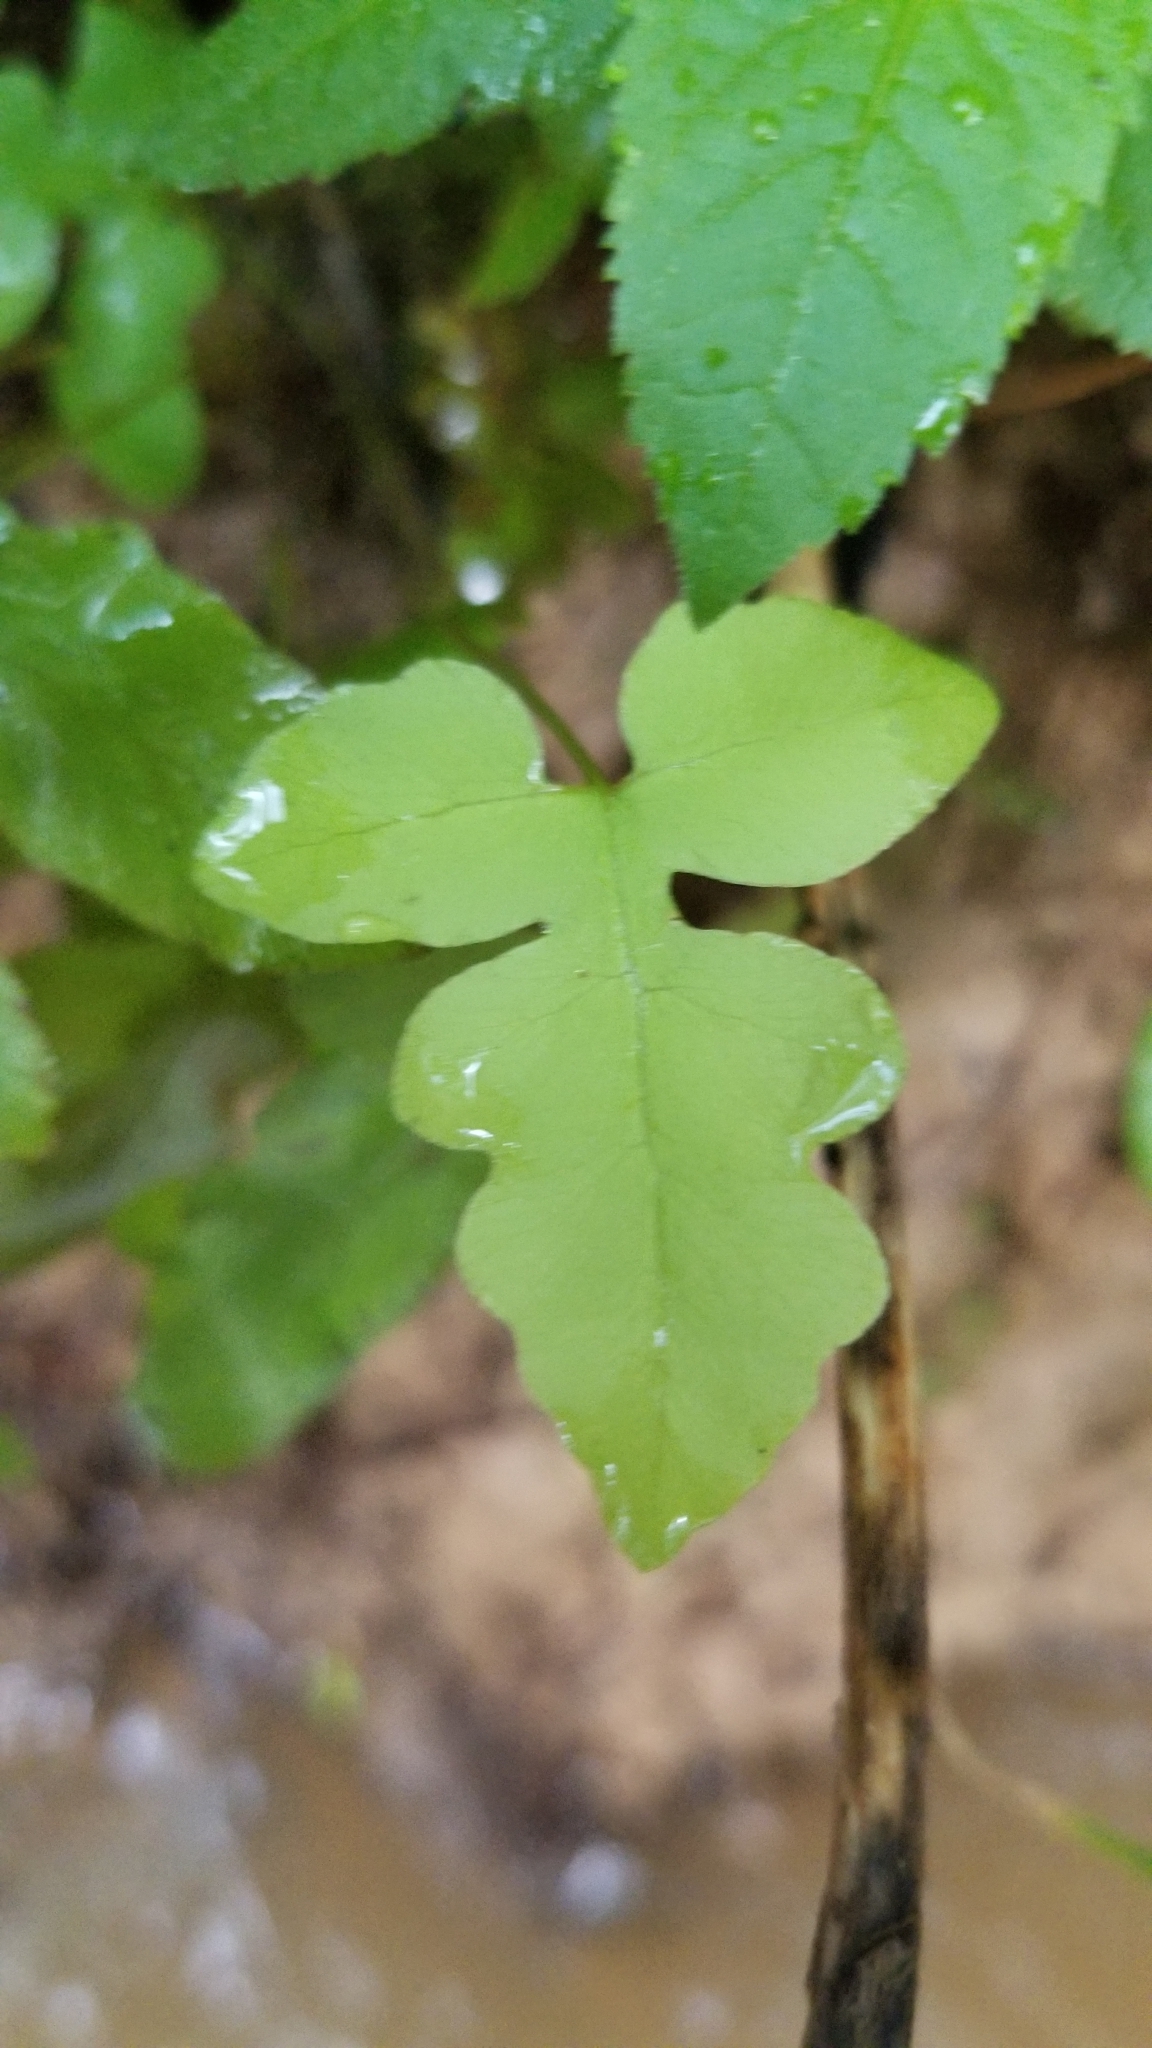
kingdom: Plantae
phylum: Tracheophyta
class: Polypodiopsida
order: Polypodiales
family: Onocleaceae
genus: Onoclea
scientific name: Onoclea sensibilis
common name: Sensitive fern
